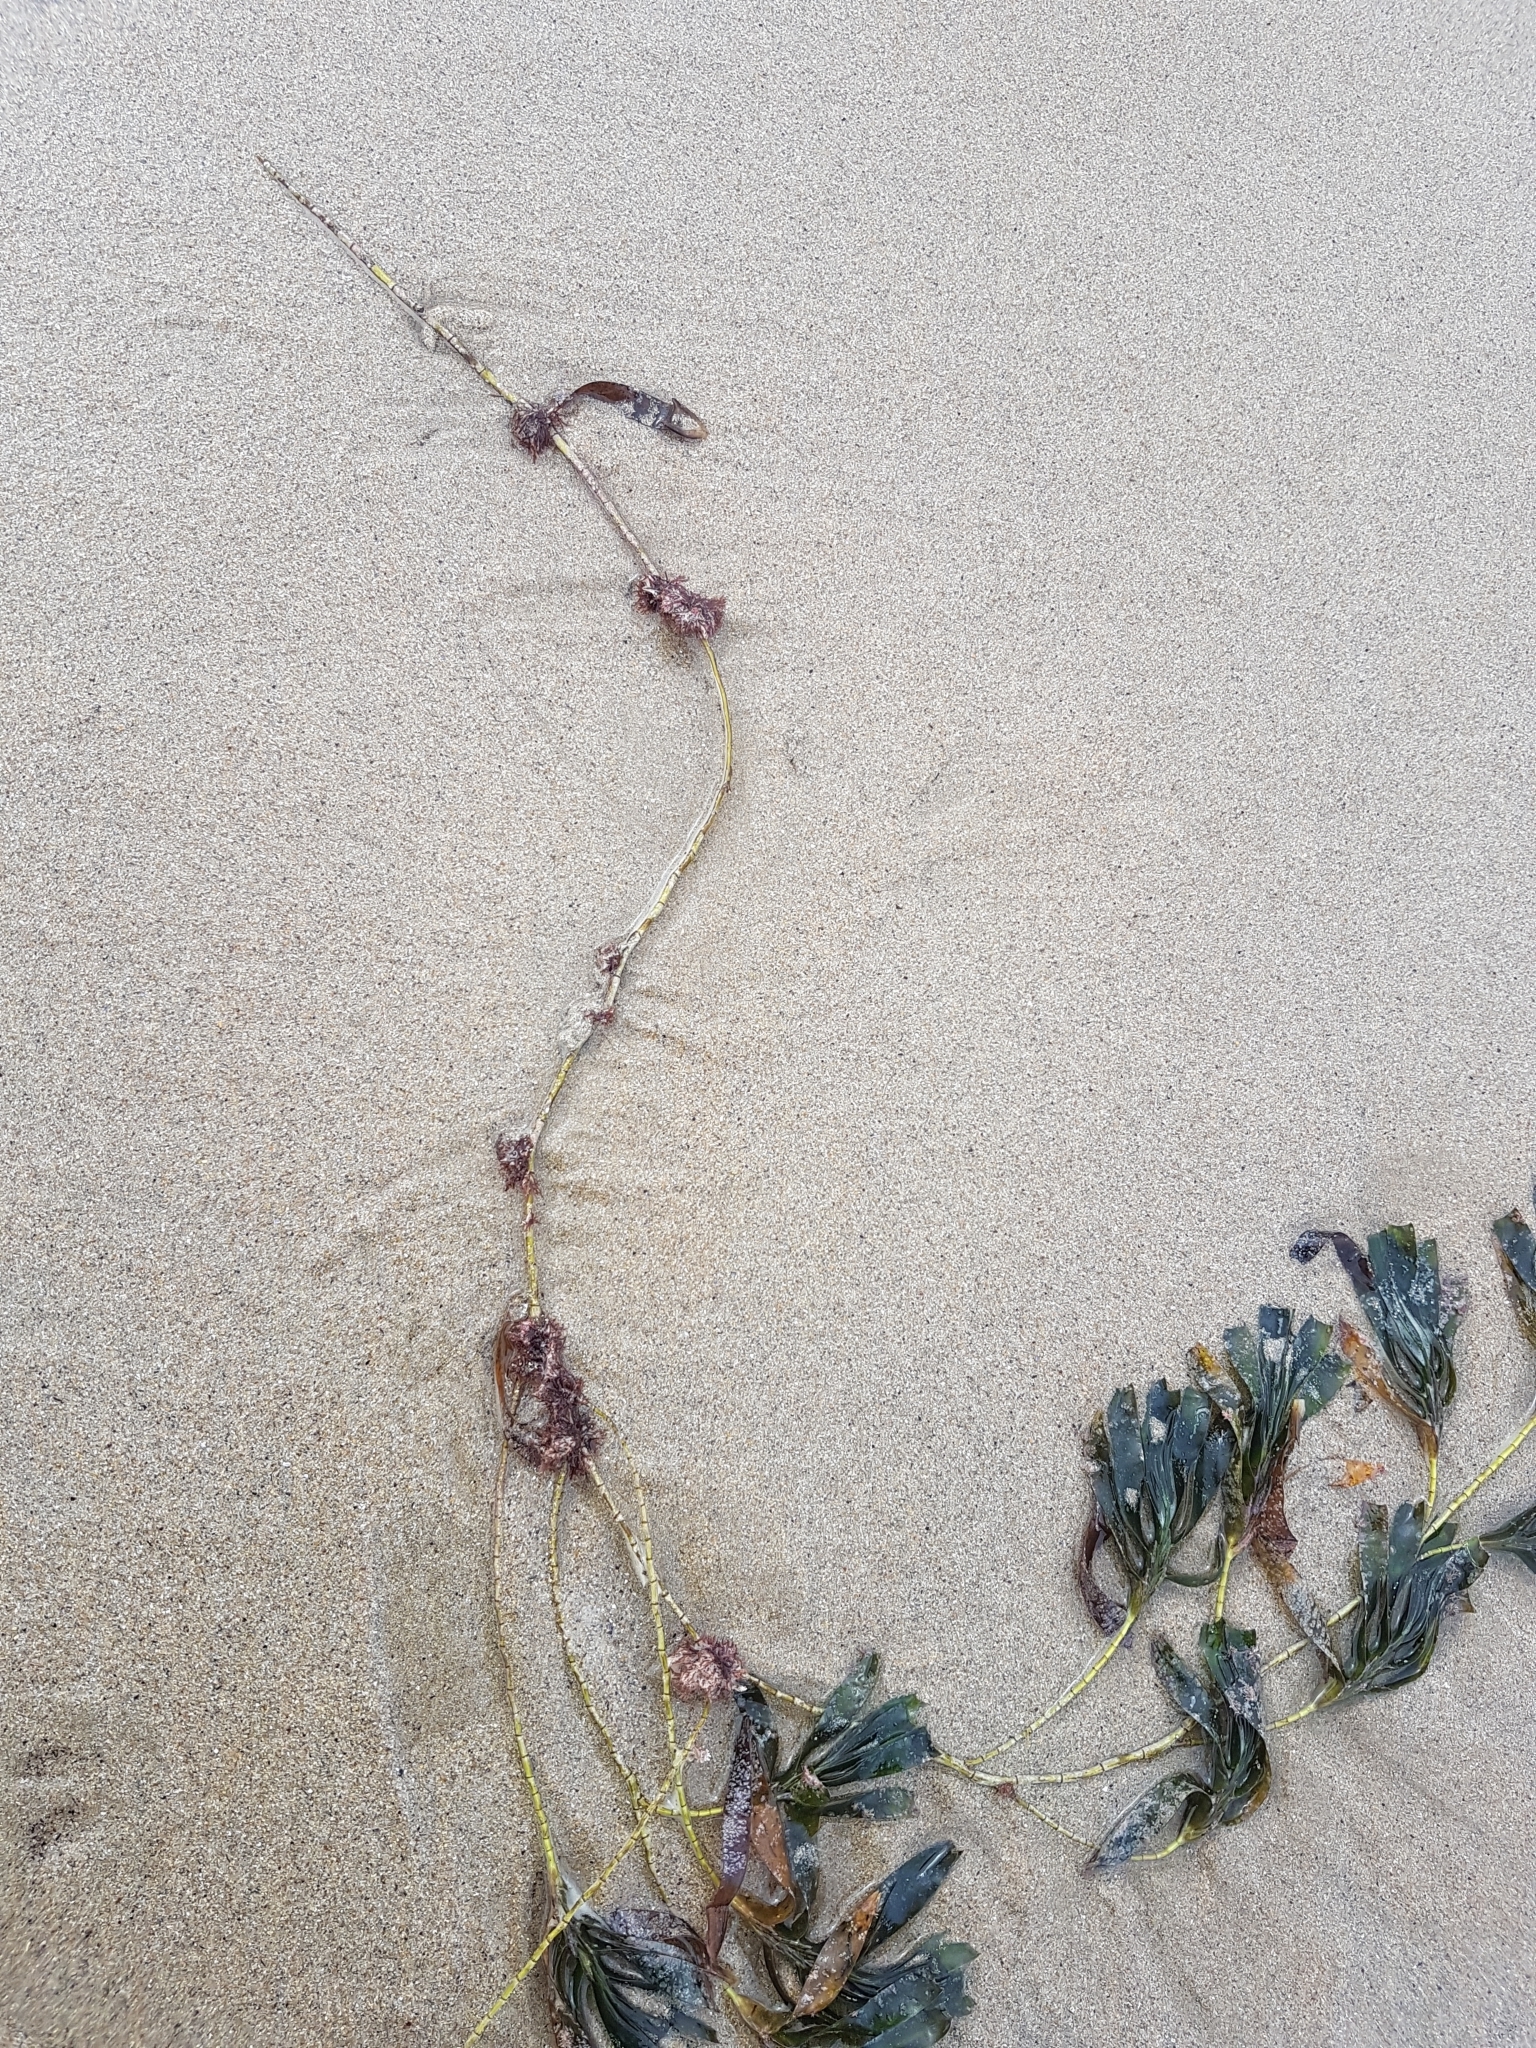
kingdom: Plantae
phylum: Tracheophyta
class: Liliopsida
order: Alismatales
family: Cymodoceaceae
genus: Amphibolis
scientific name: Amphibolis antarctica
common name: Species code: aa
